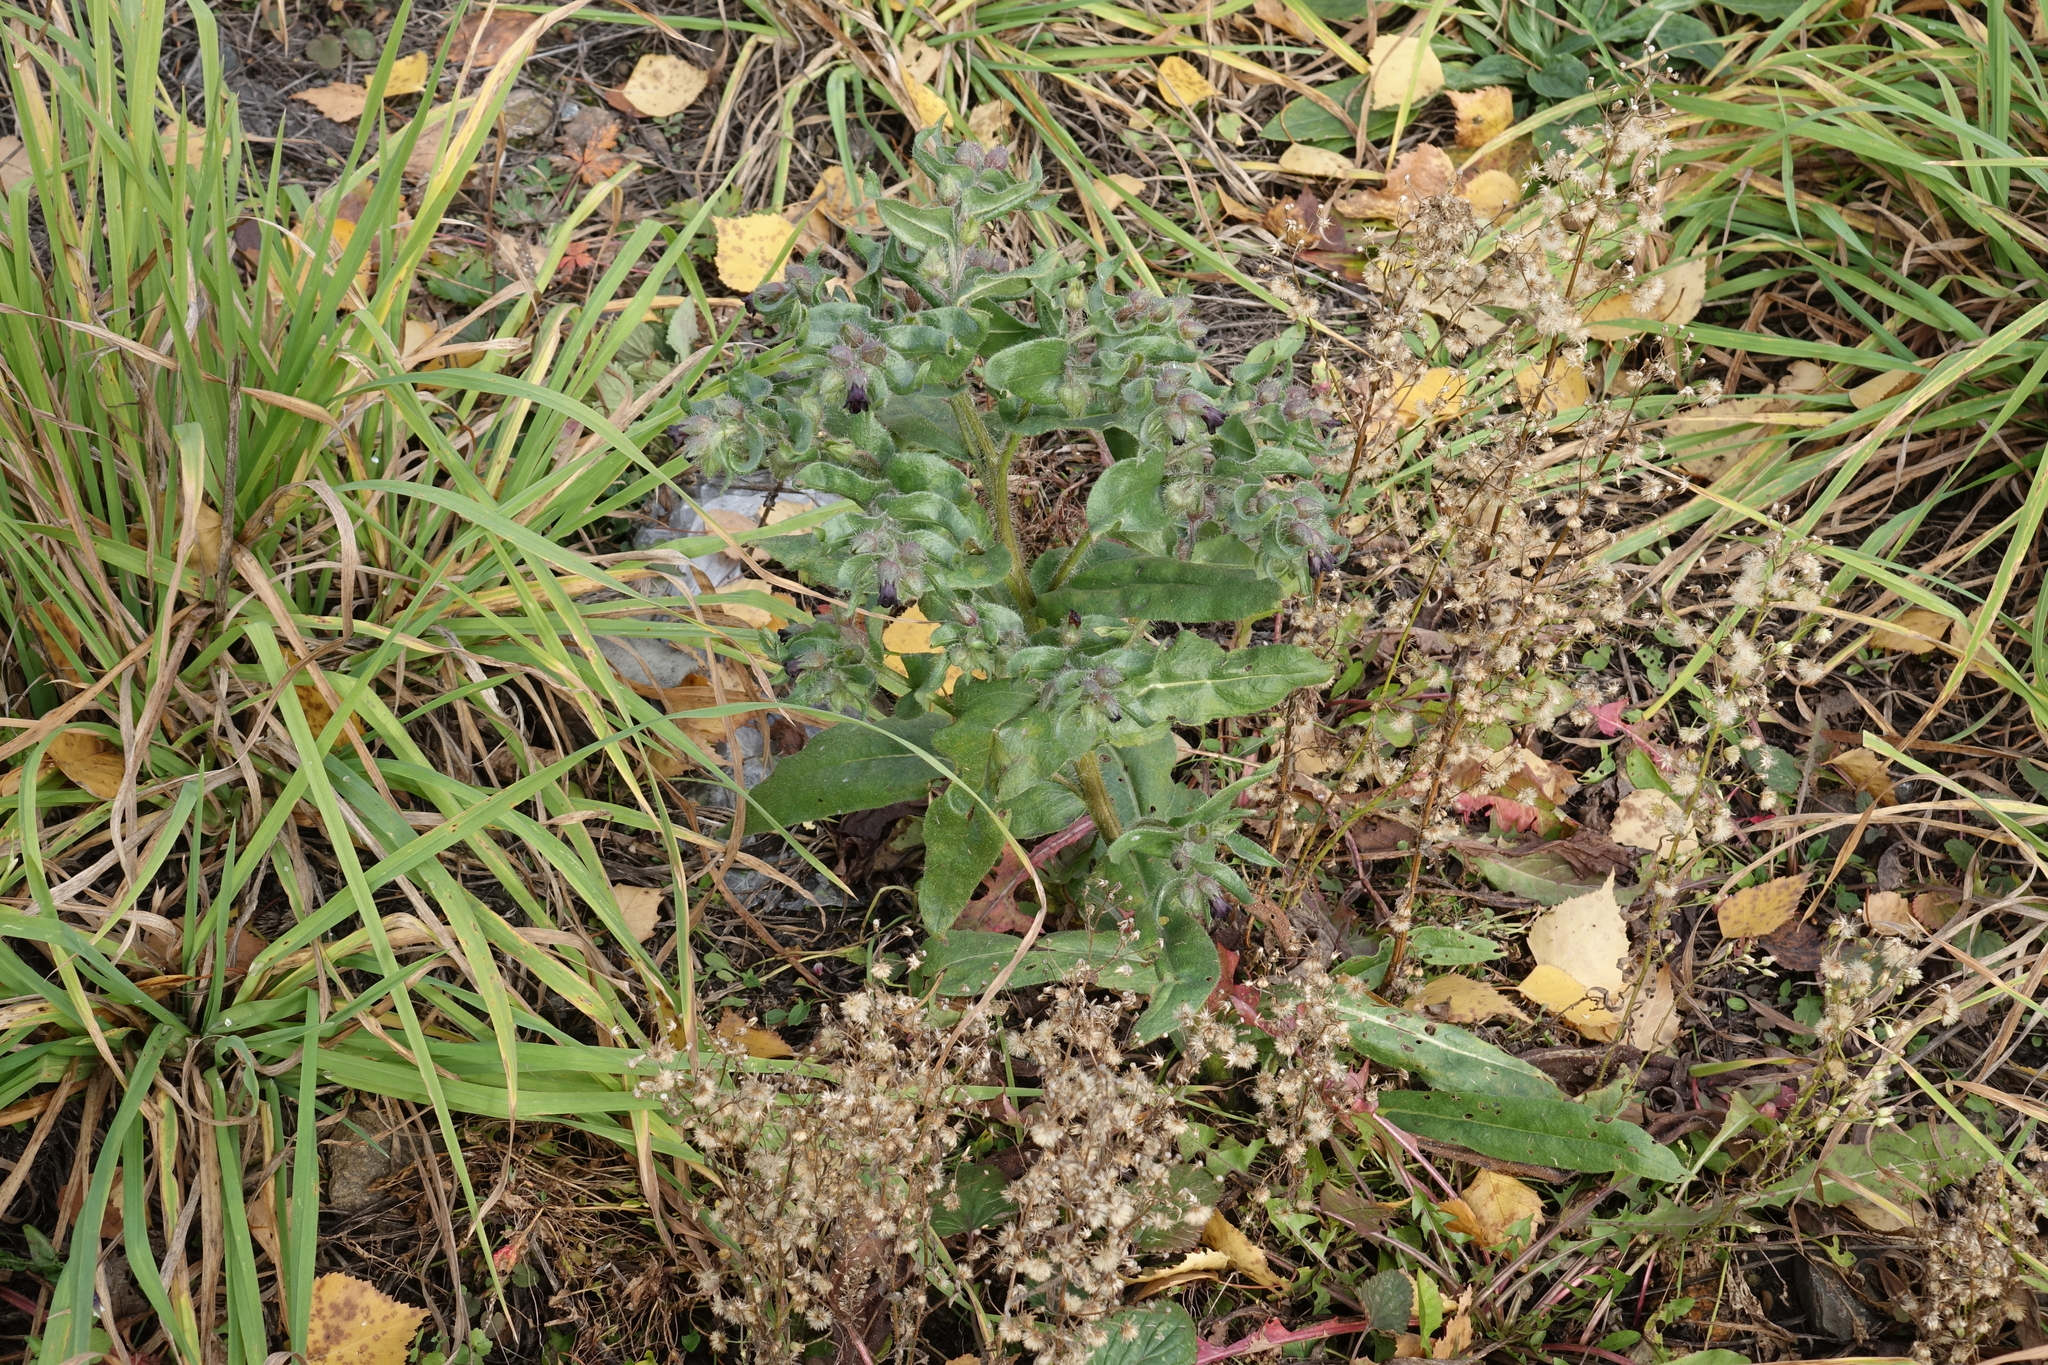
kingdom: Plantae
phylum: Tracheophyta
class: Magnoliopsida
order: Boraginales
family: Boraginaceae
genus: Nonea
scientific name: Nonea pulla
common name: Brown nonea
